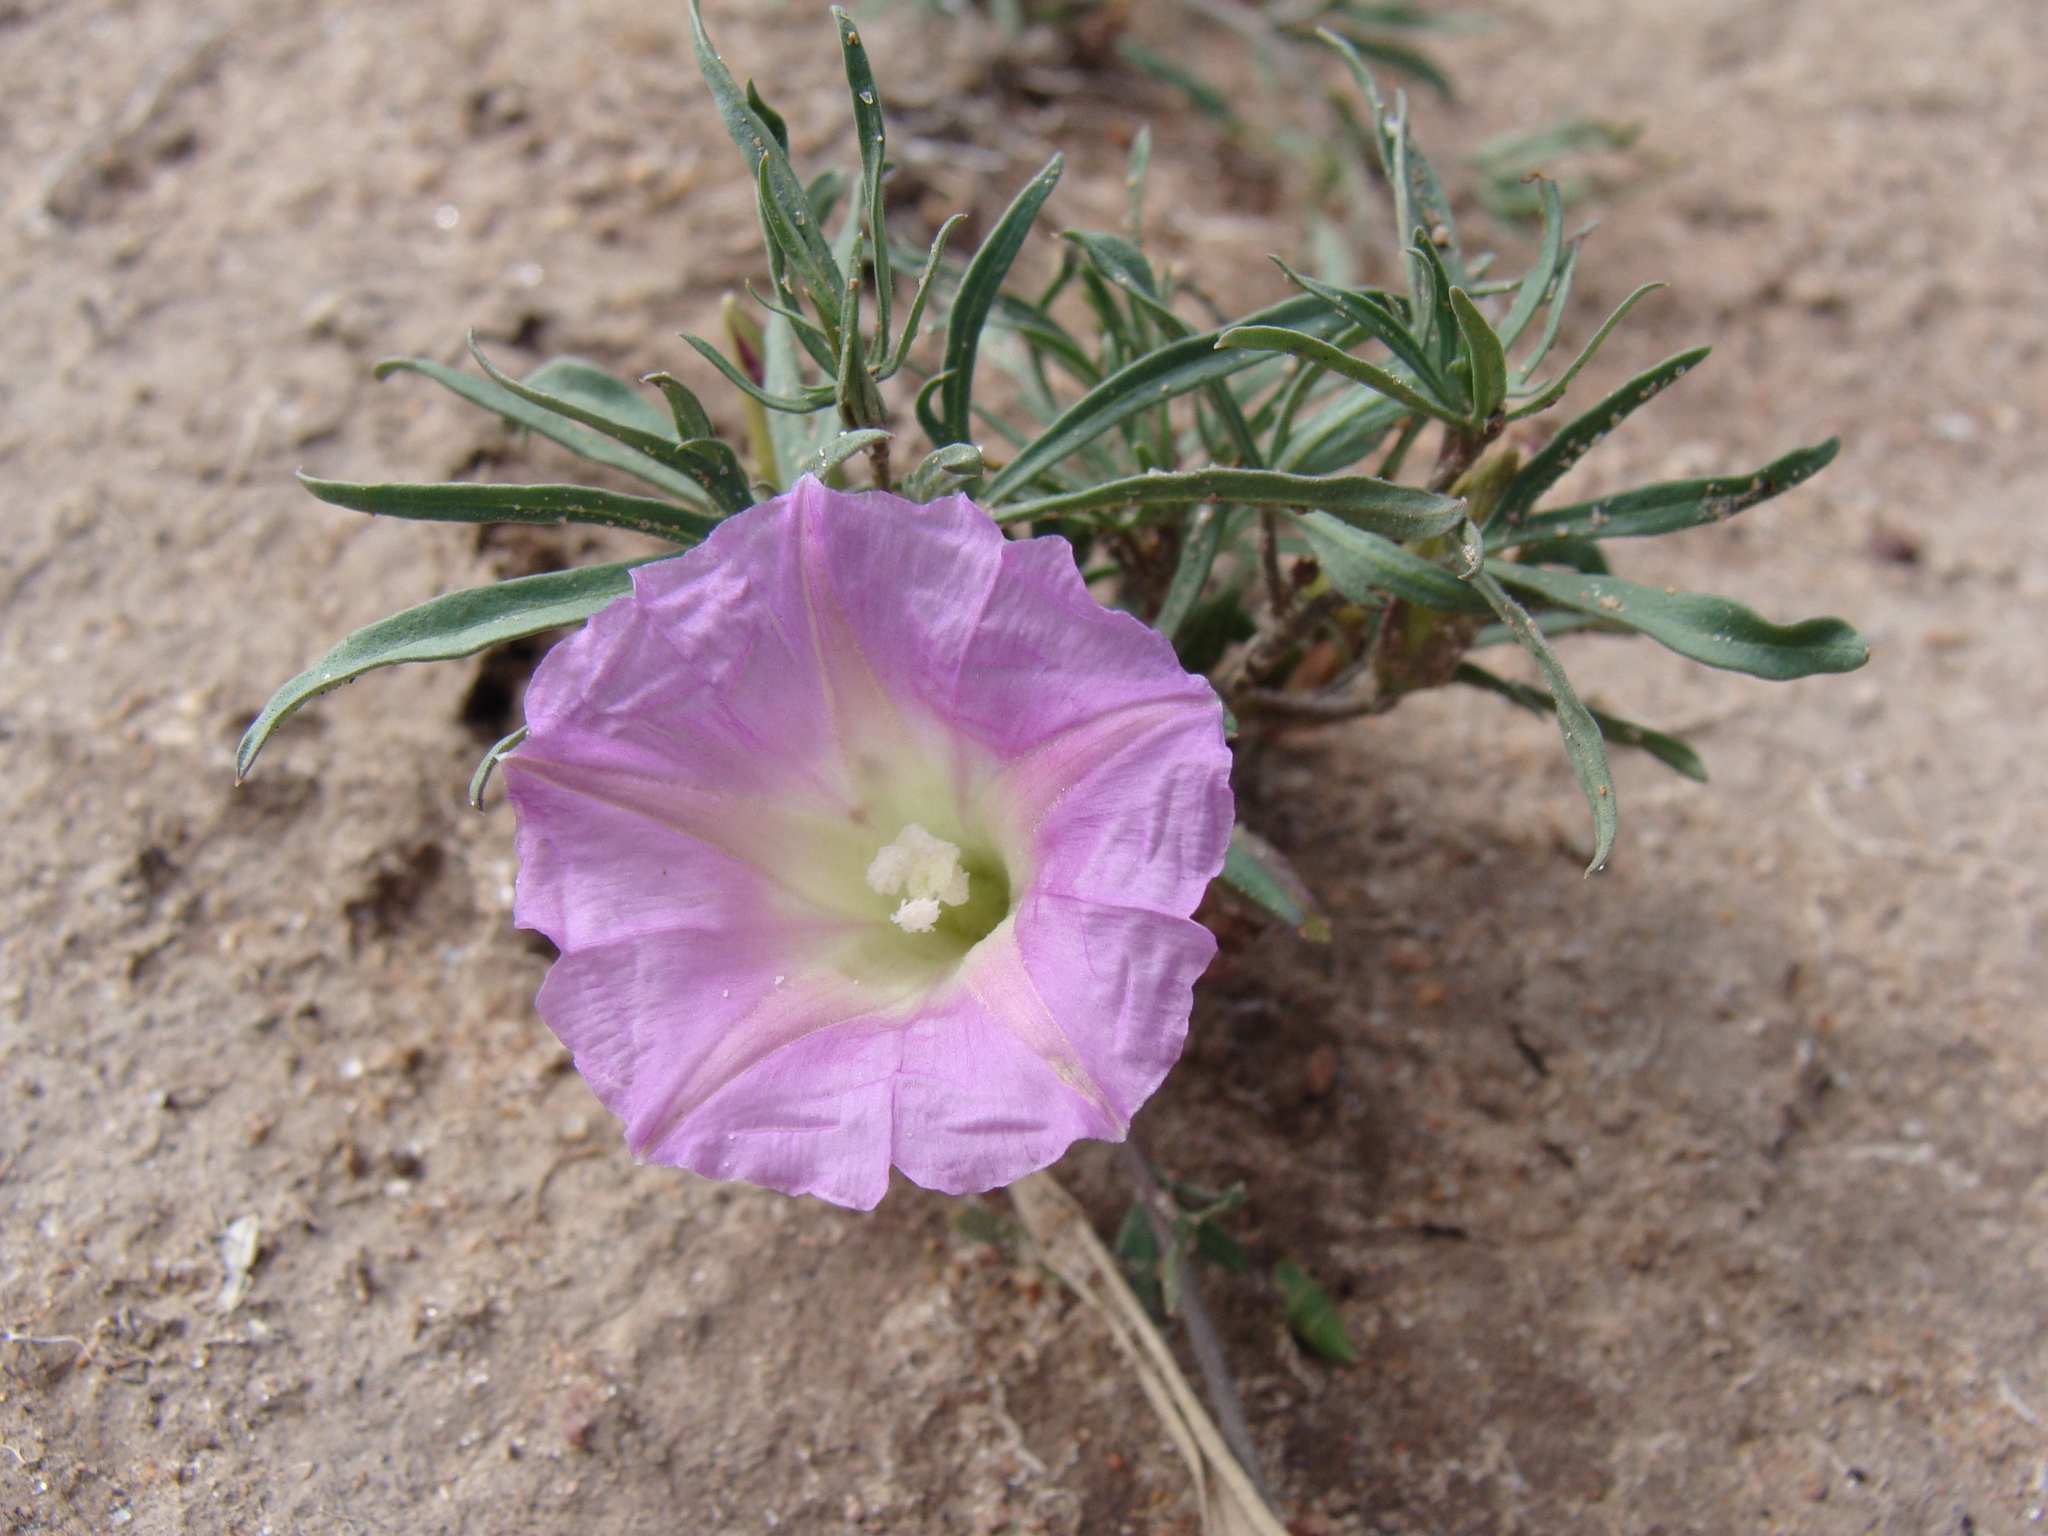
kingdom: Plantae
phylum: Tracheophyta
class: Magnoliopsida
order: Solanales
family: Convolvulaceae
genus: Ipomoea
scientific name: Ipomoea madrensis
